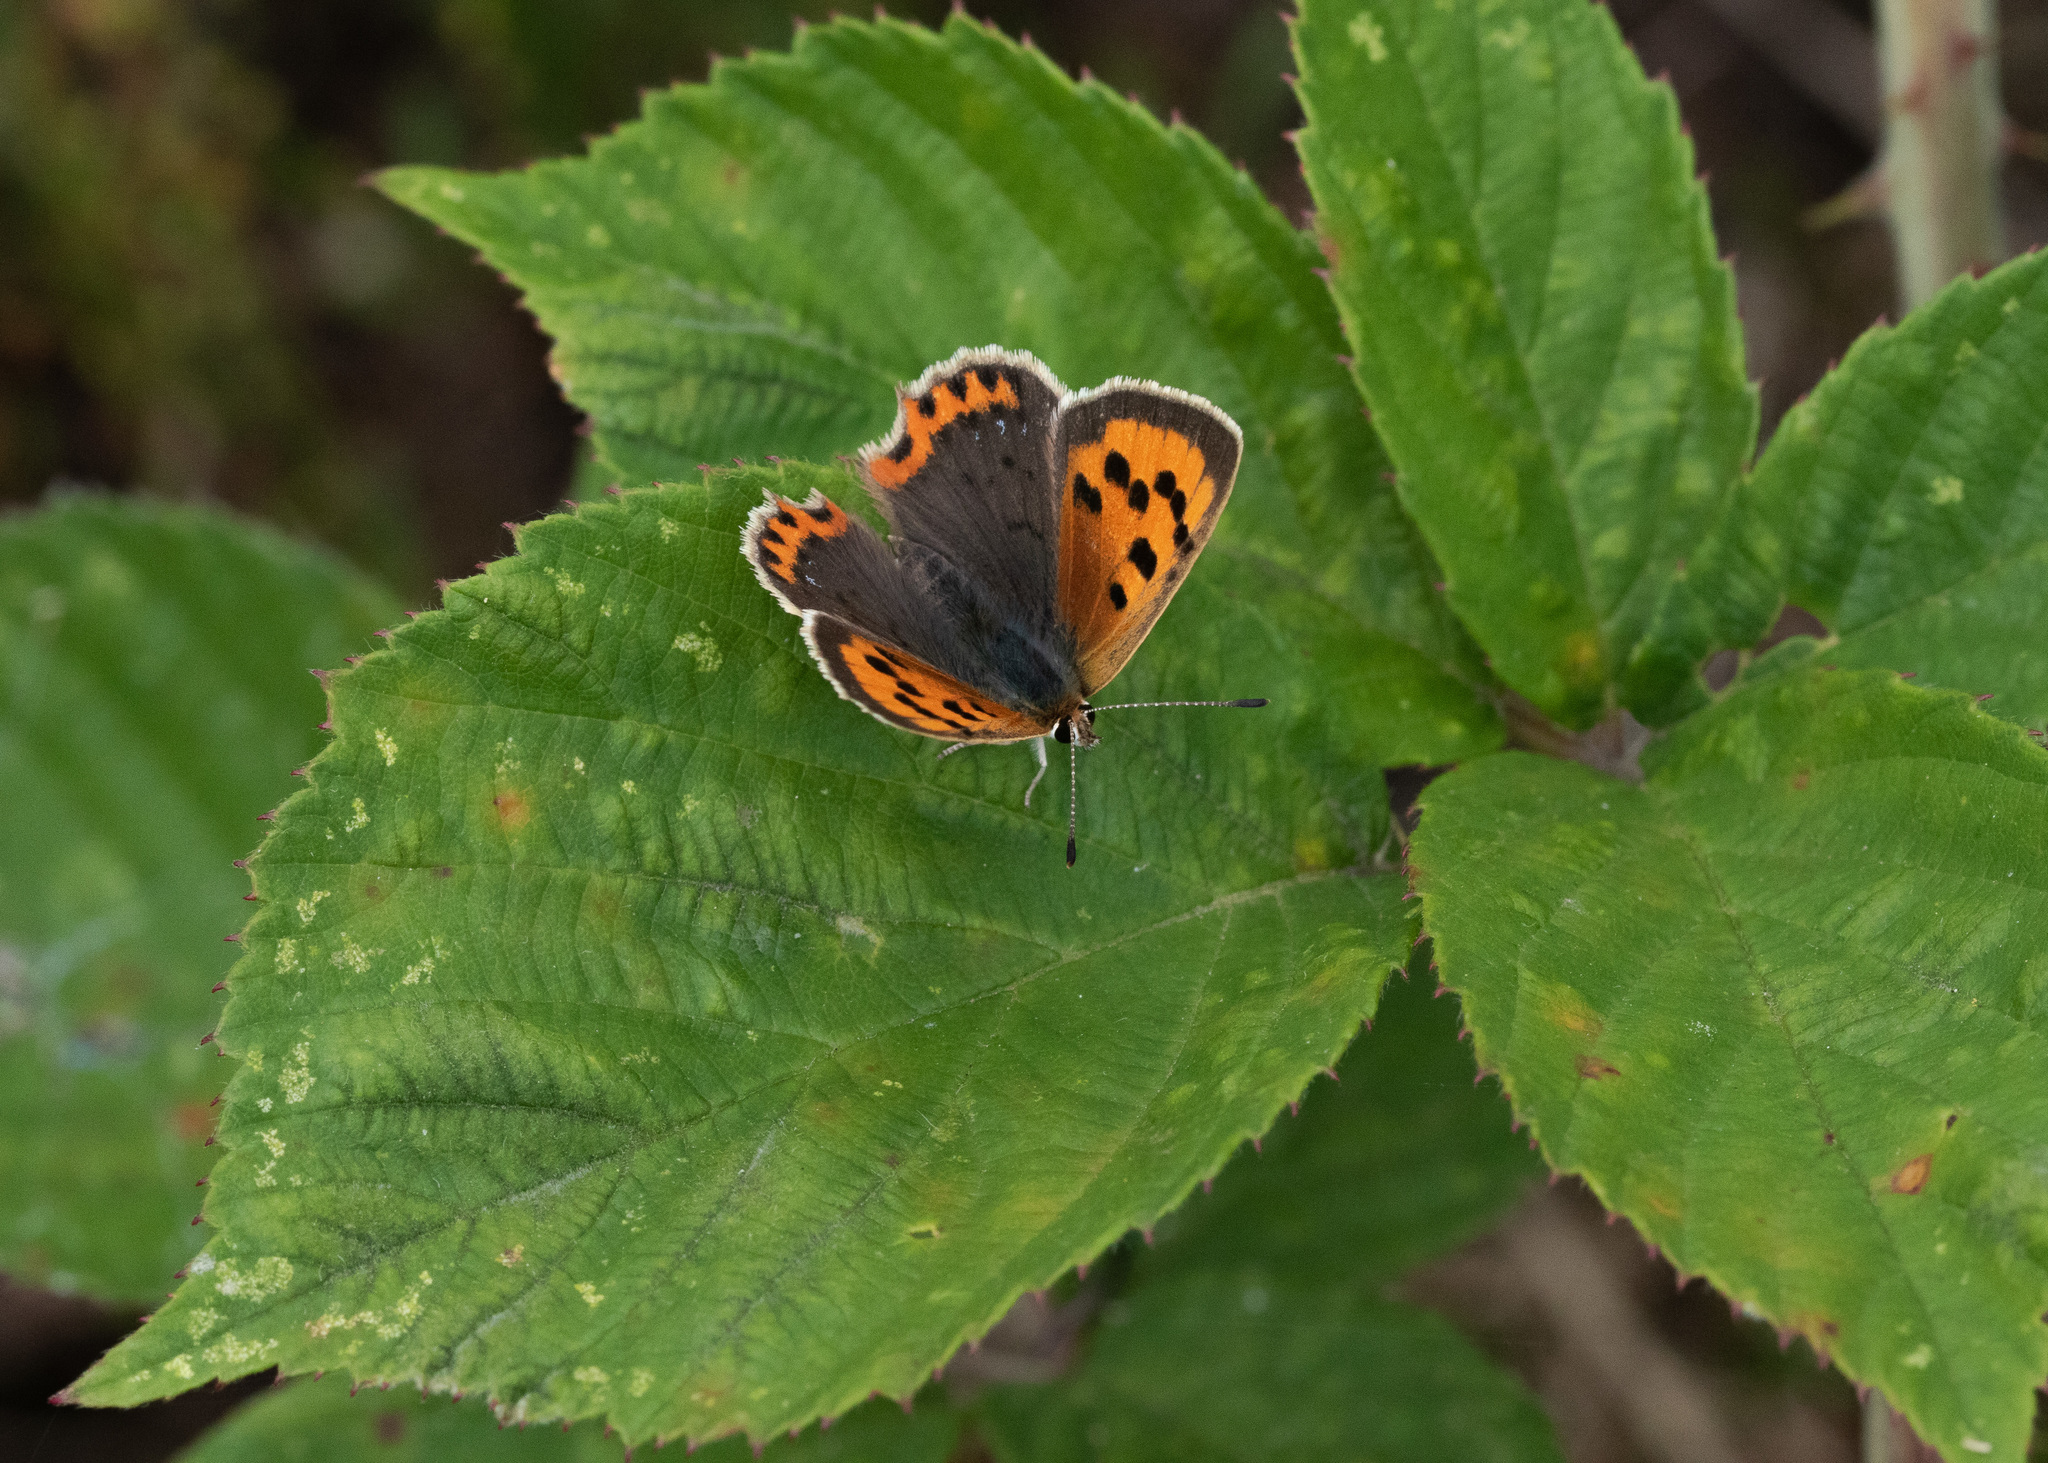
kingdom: Animalia
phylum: Arthropoda
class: Insecta
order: Lepidoptera
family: Lycaenidae
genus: Lycaena
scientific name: Lycaena phlaeas
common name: Small copper
